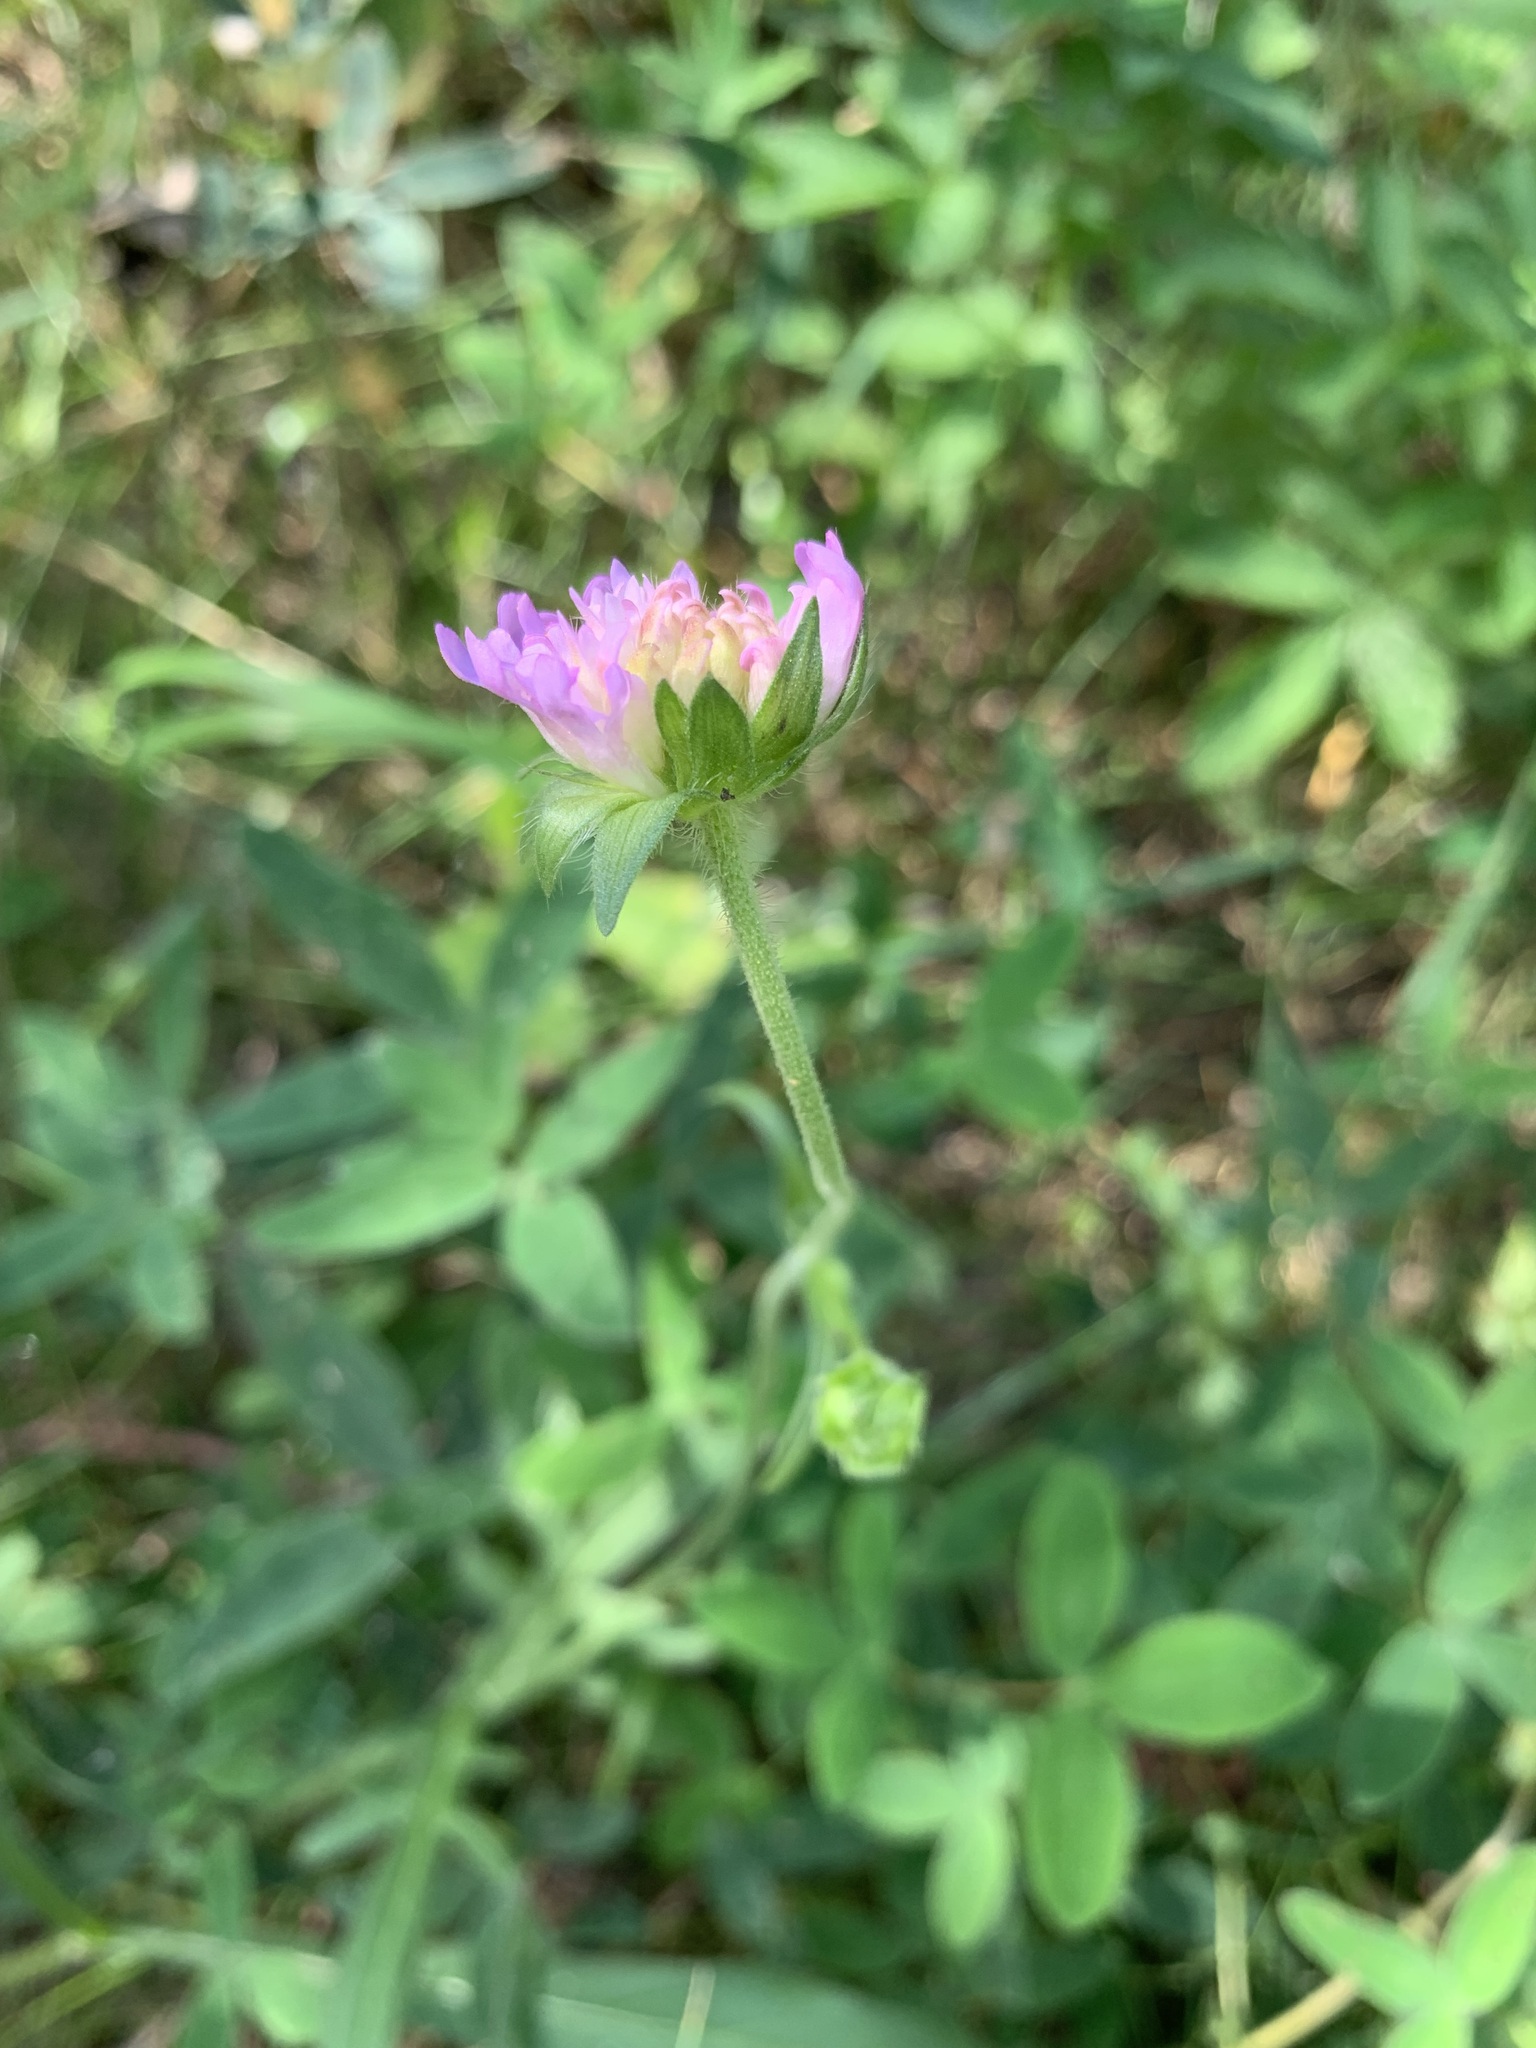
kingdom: Plantae
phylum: Tracheophyta
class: Magnoliopsida
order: Dipsacales
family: Caprifoliaceae
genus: Knautia
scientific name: Knautia arvensis
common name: Field scabiosa
